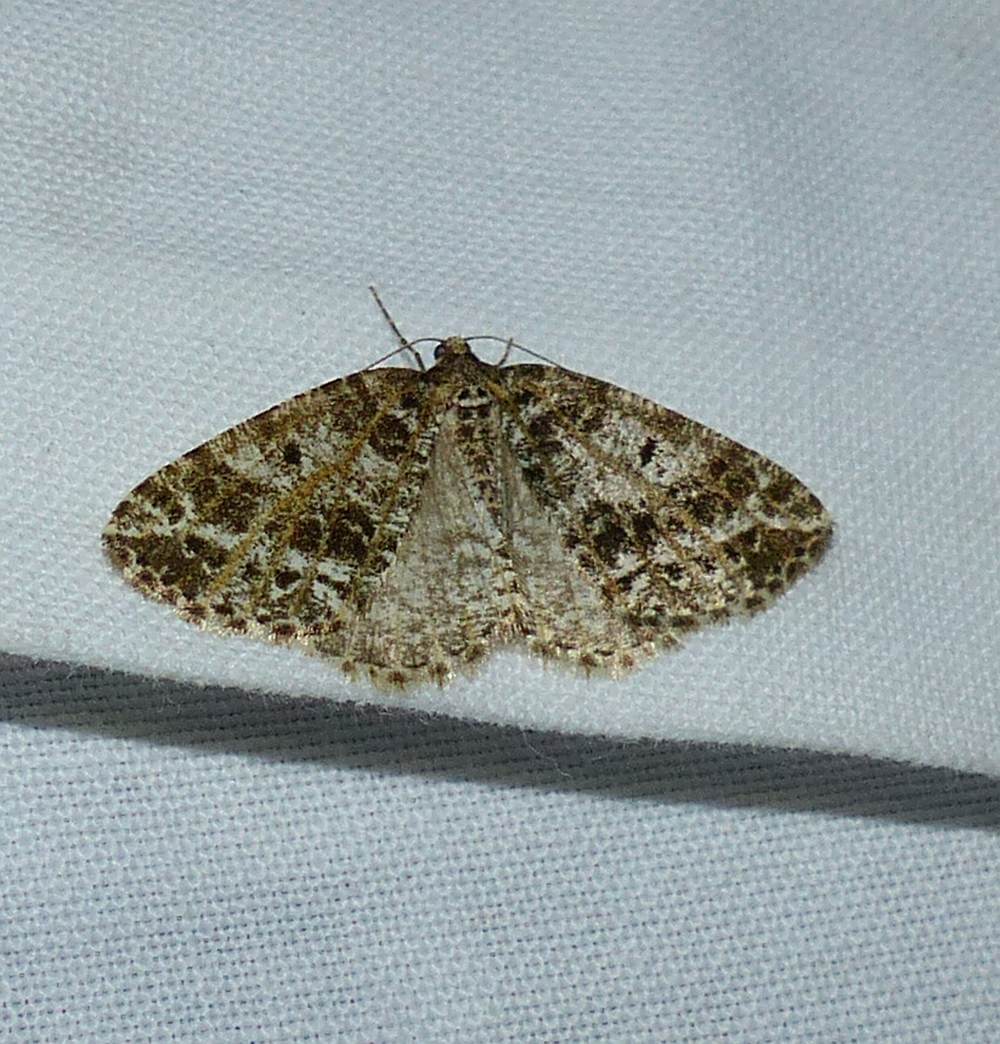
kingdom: Animalia
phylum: Arthropoda
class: Insecta
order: Lepidoptera
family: Geometridae
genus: Orthofidonia
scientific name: Orthofidonia flavivenata
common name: Yellow-veined geometer moth
